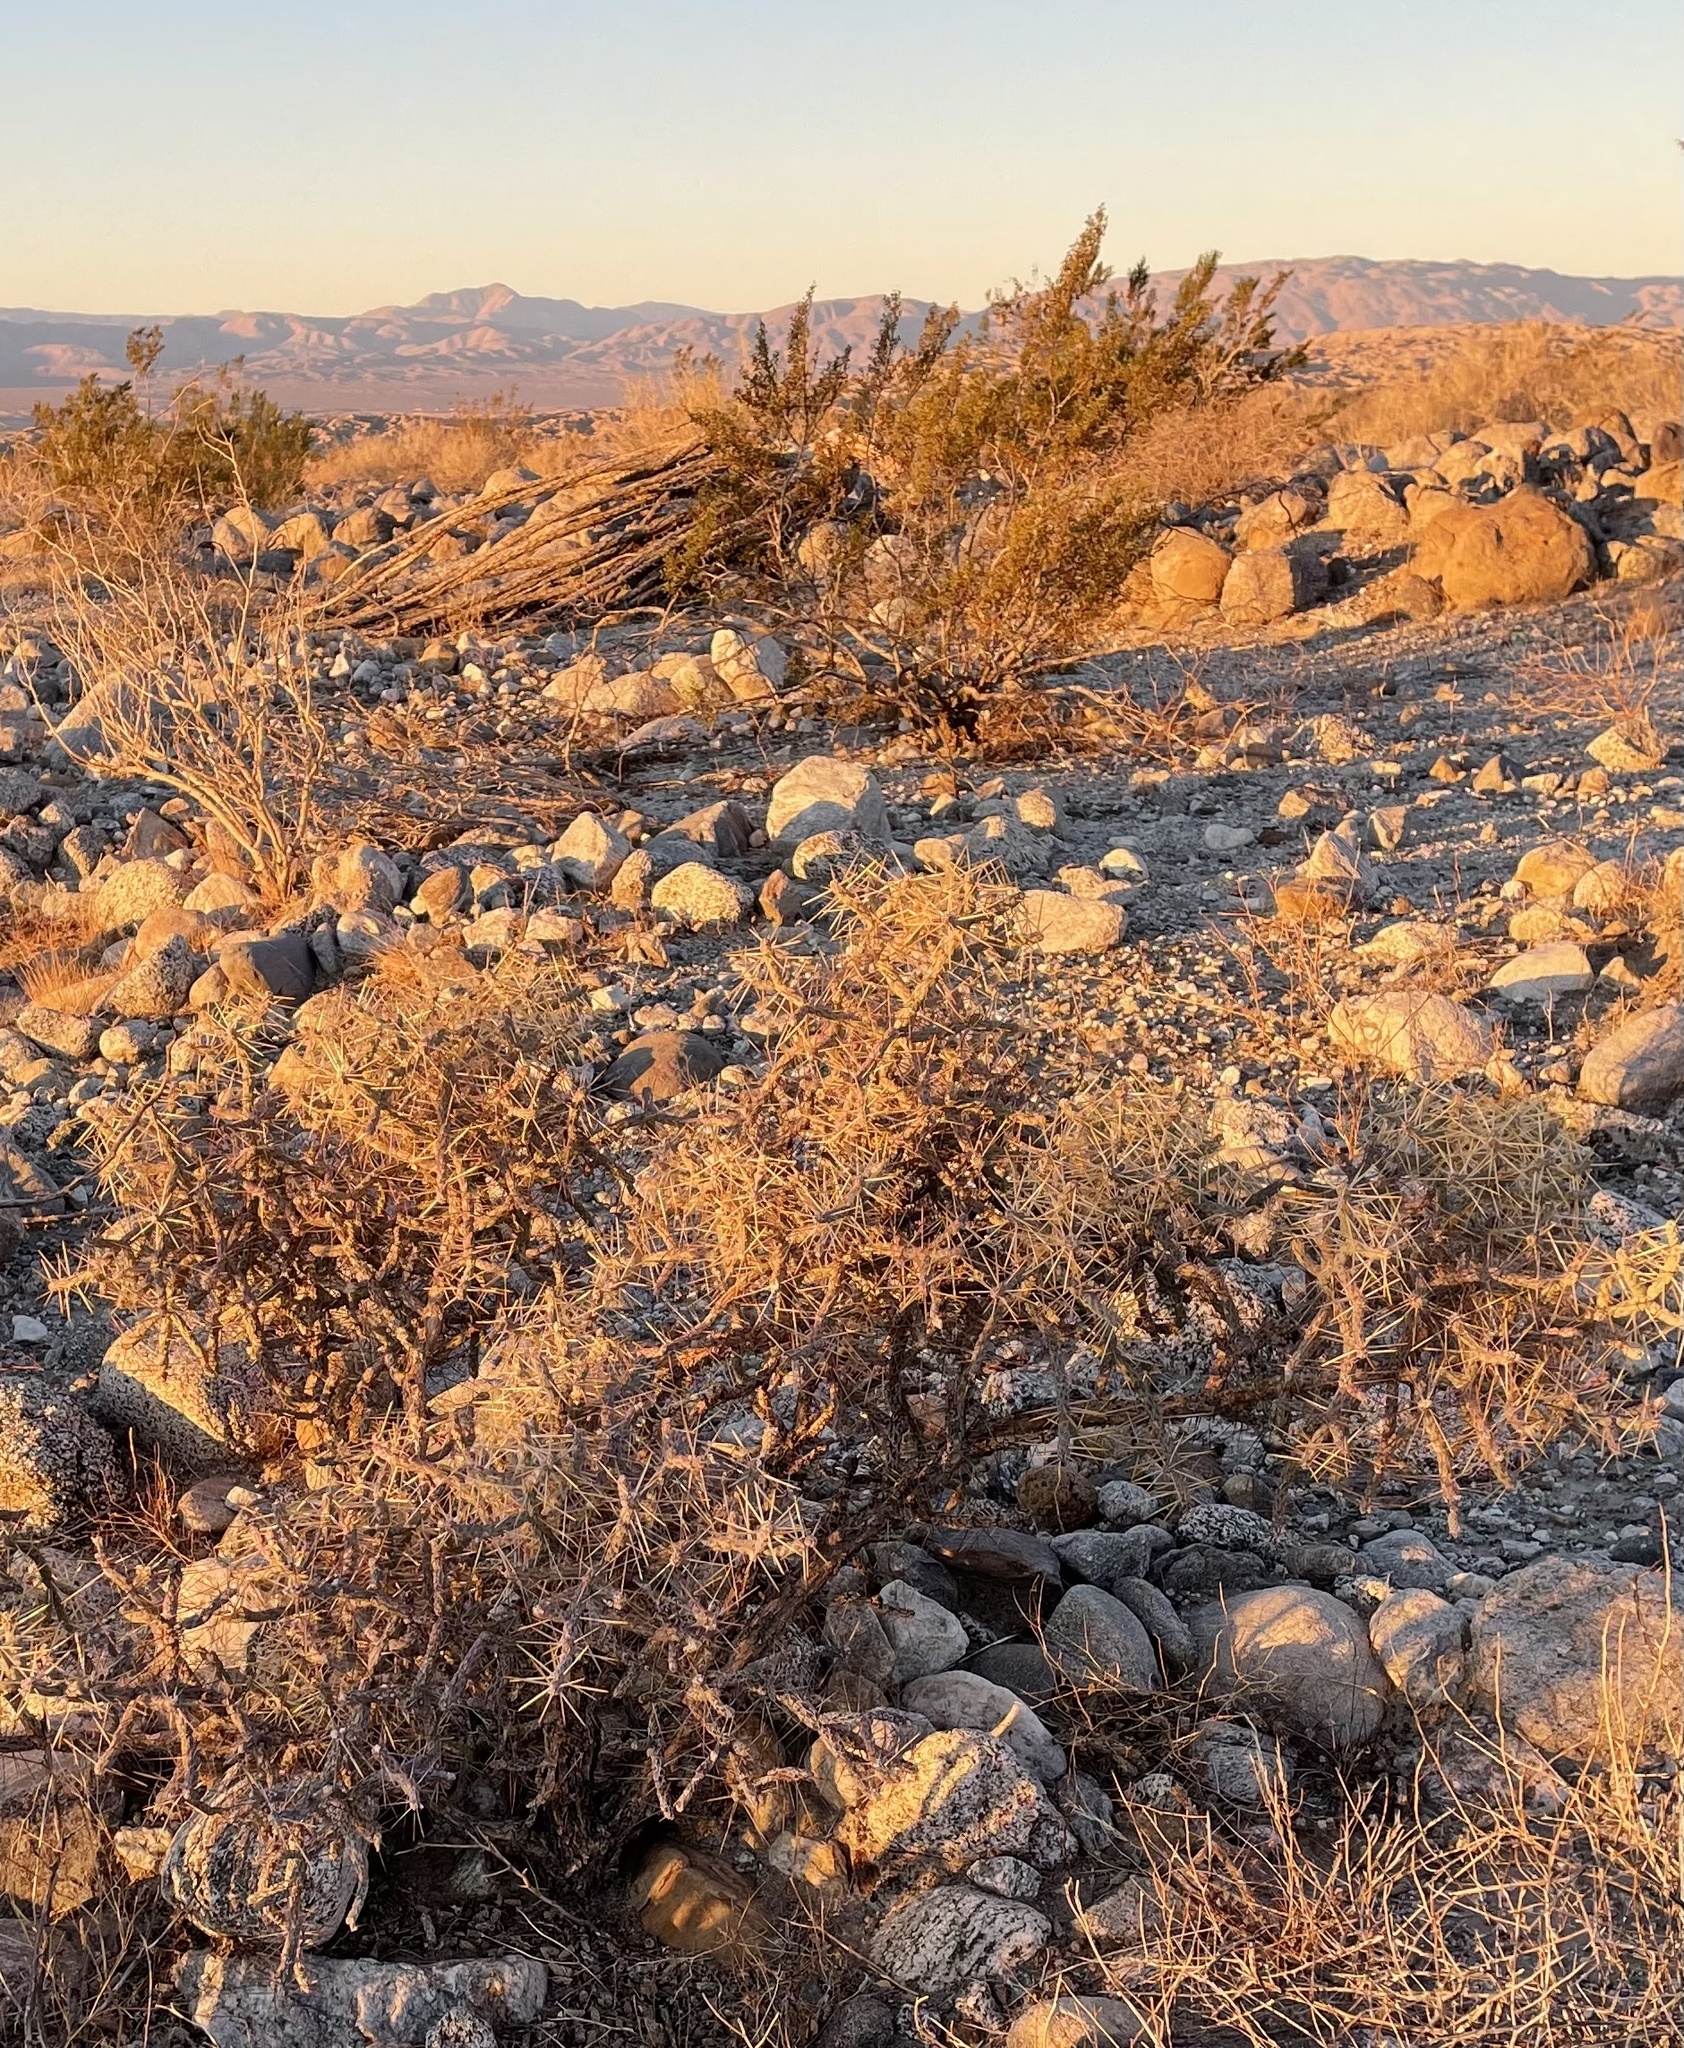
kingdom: Plantae
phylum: Tracheophyta
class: Magnoliopsida
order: Caryophyllales
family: Cactaceae
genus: Cylindropuntia
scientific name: Cylindropuntia ramosissima
